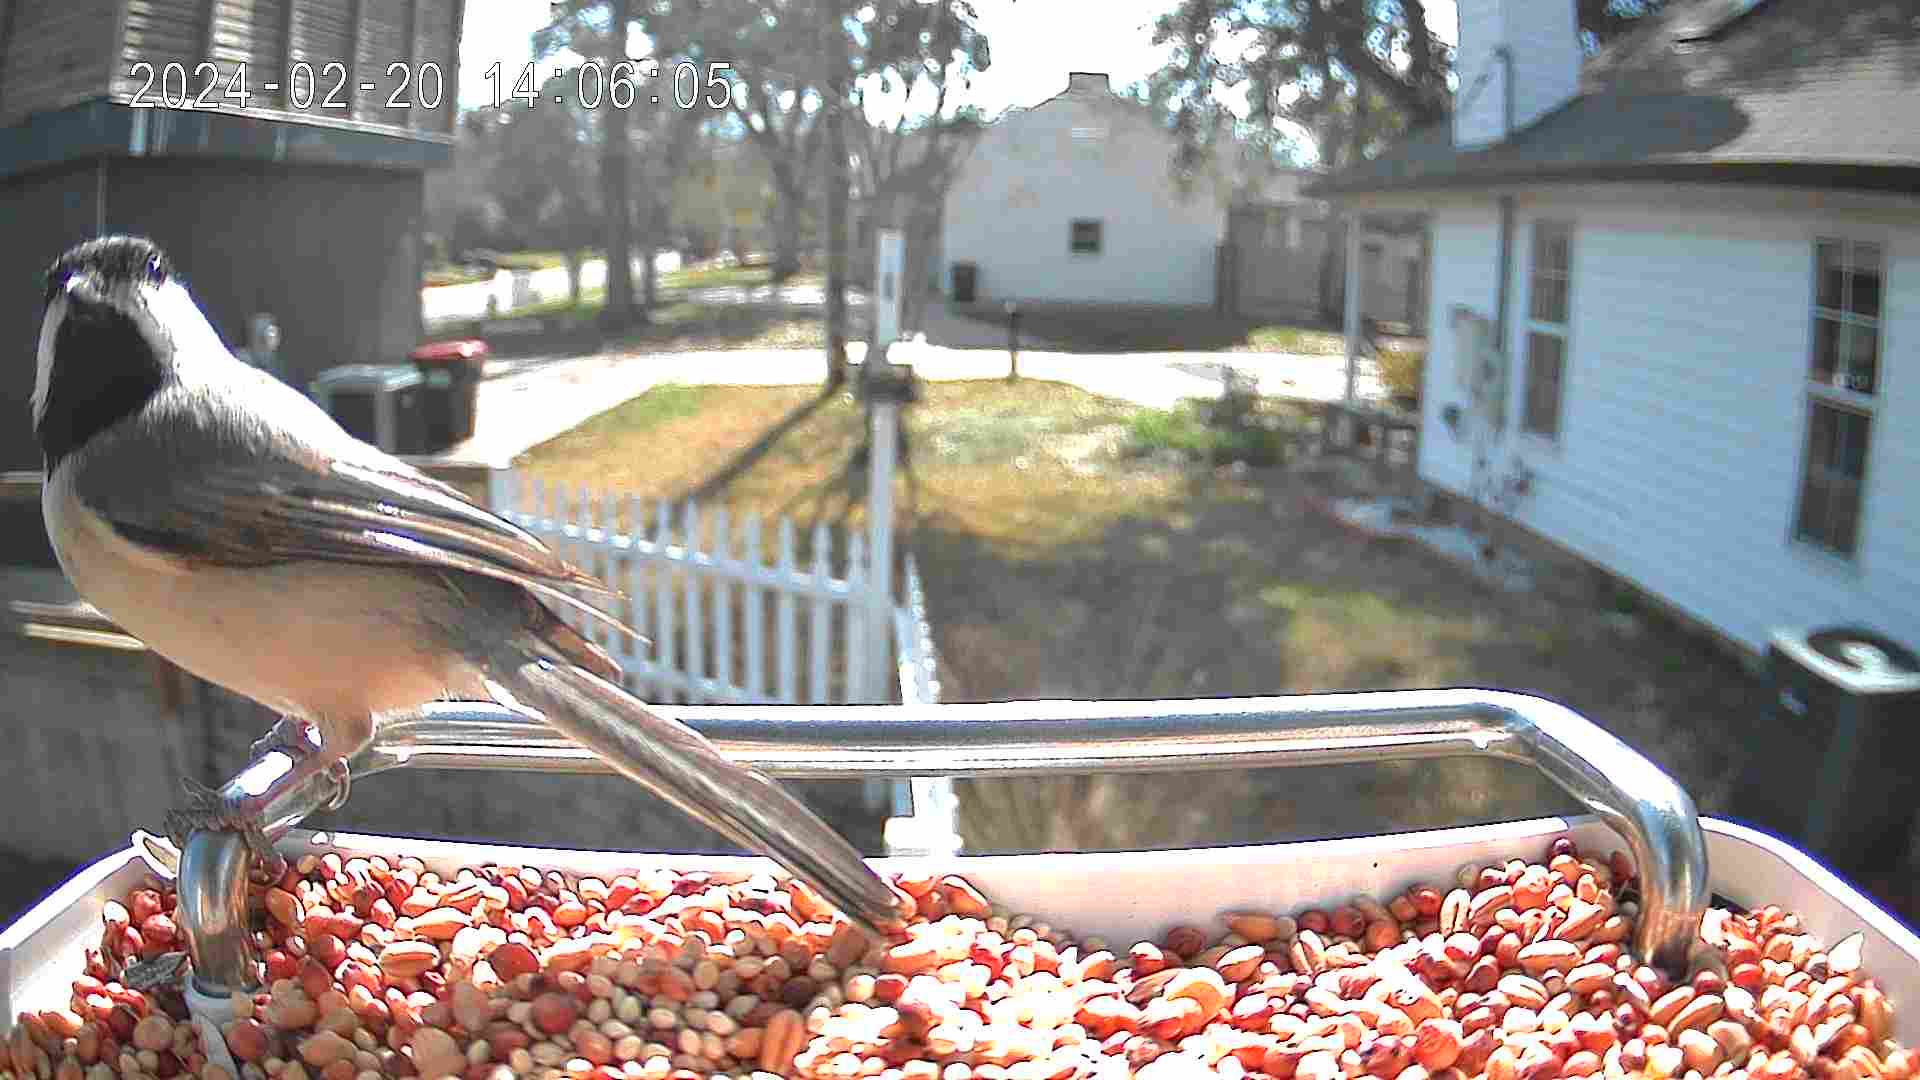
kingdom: Animalia
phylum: Chordata
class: Aves
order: Passeriformes
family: Paridae
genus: Poecile
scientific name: Poecile carolinensis
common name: Carolina chickadee
